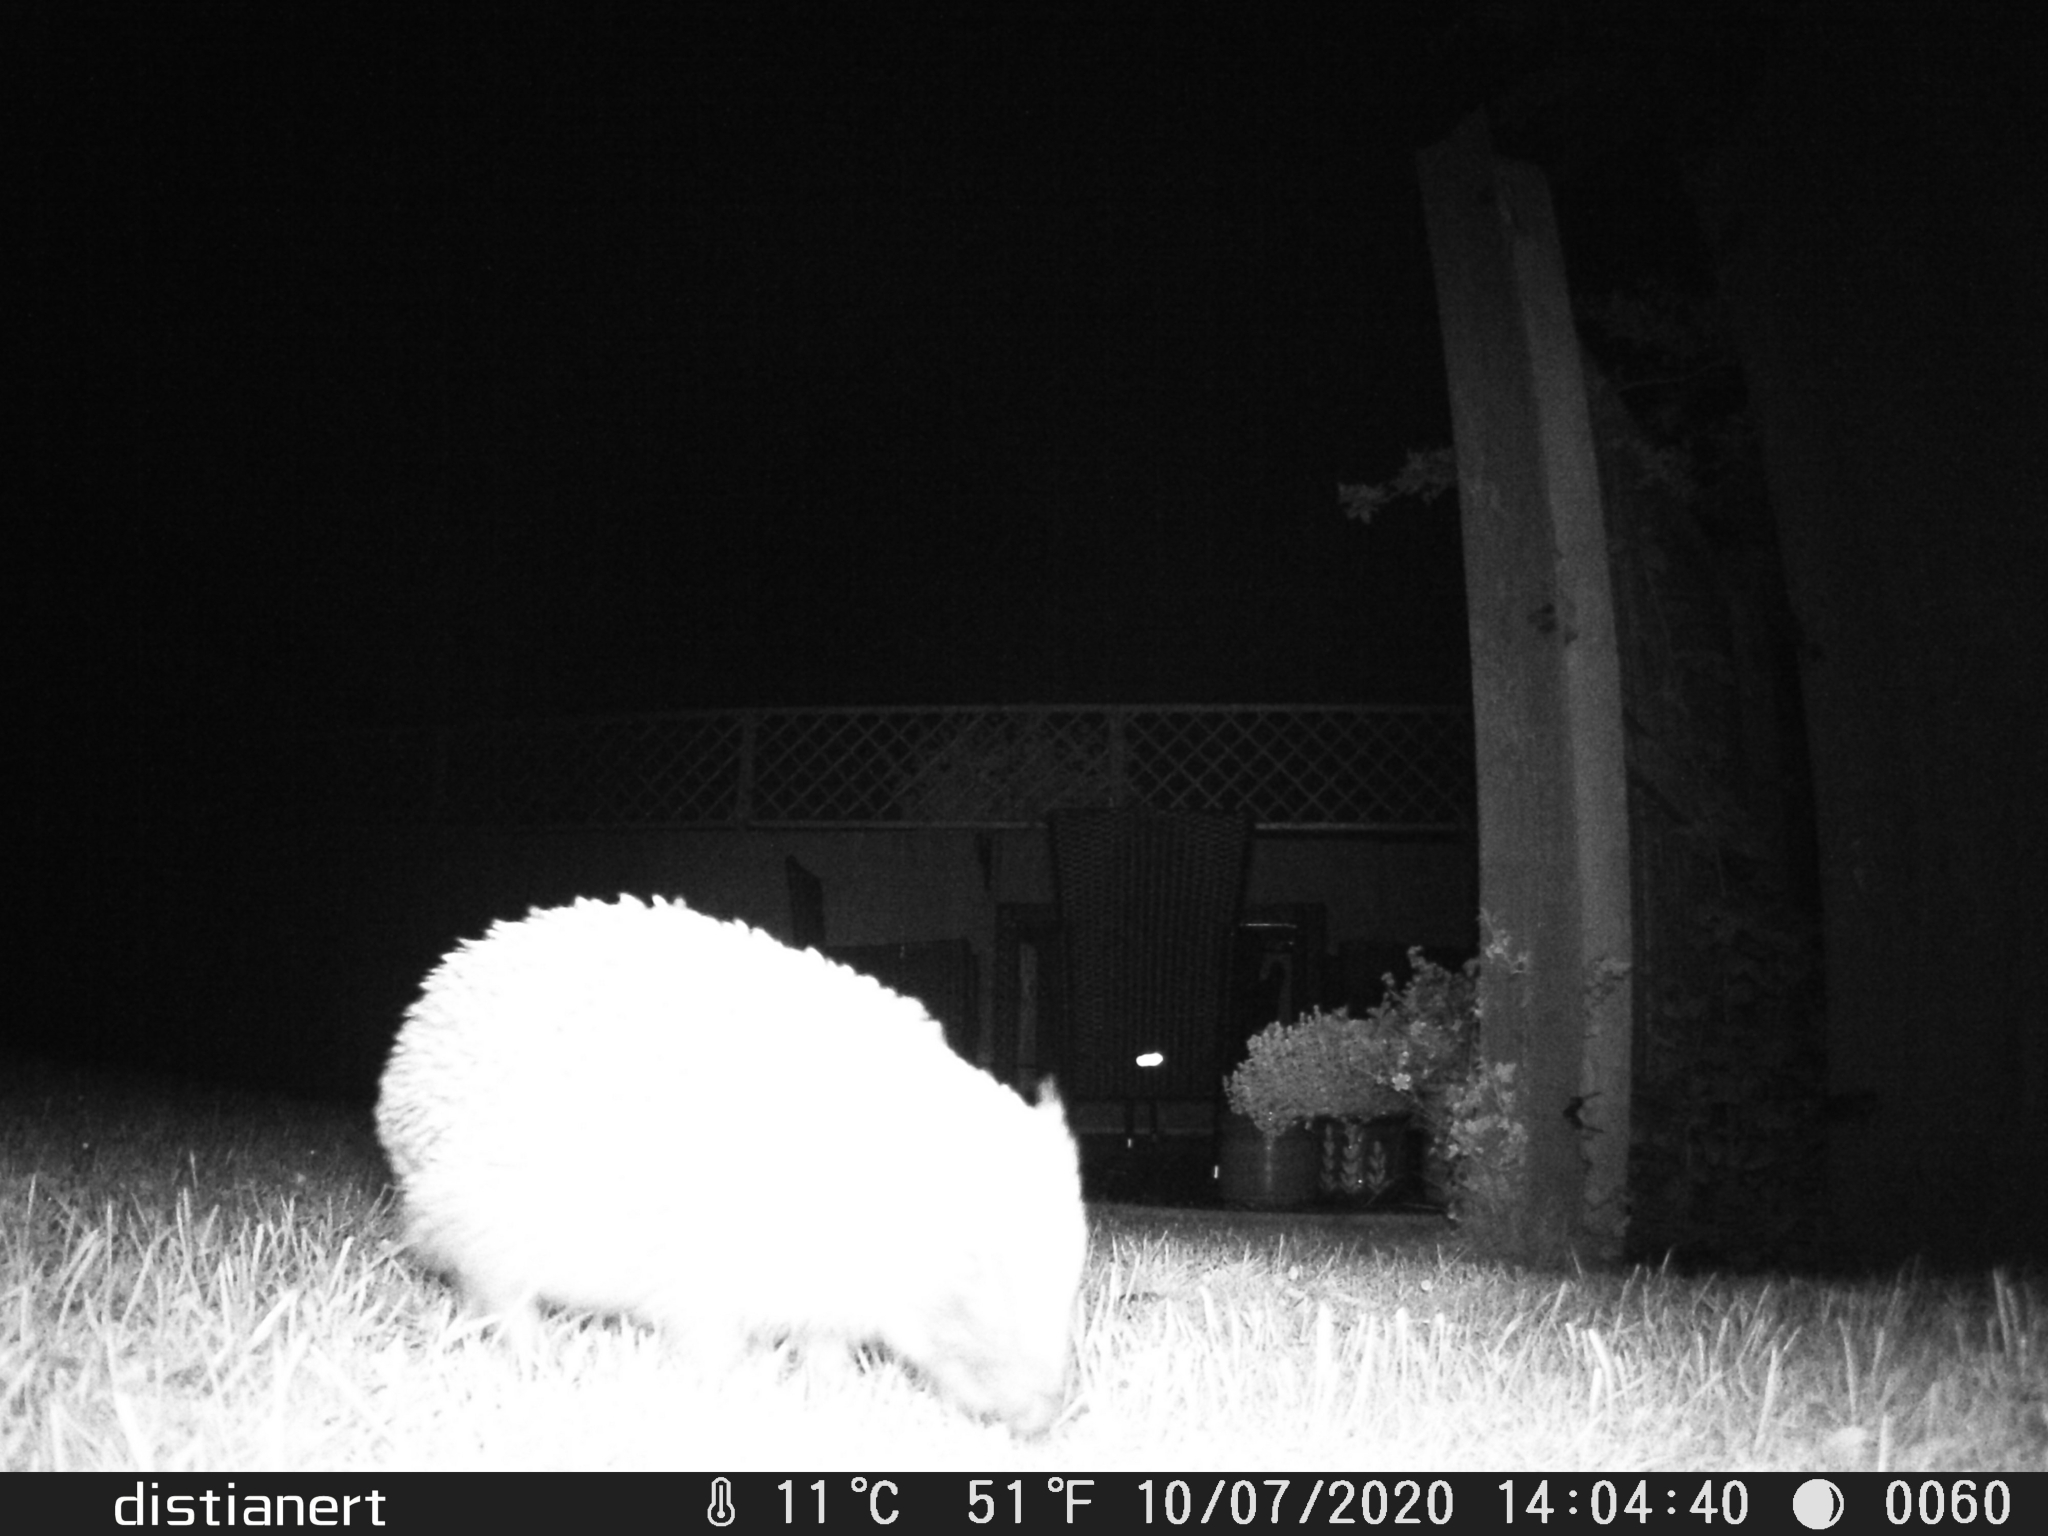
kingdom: Animalia
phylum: Chordata
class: Mammalia
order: Erinaceomorpha
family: Erinaceidae
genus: Erinaceus
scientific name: Erinaceus europaeus
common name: West european hedgehog
